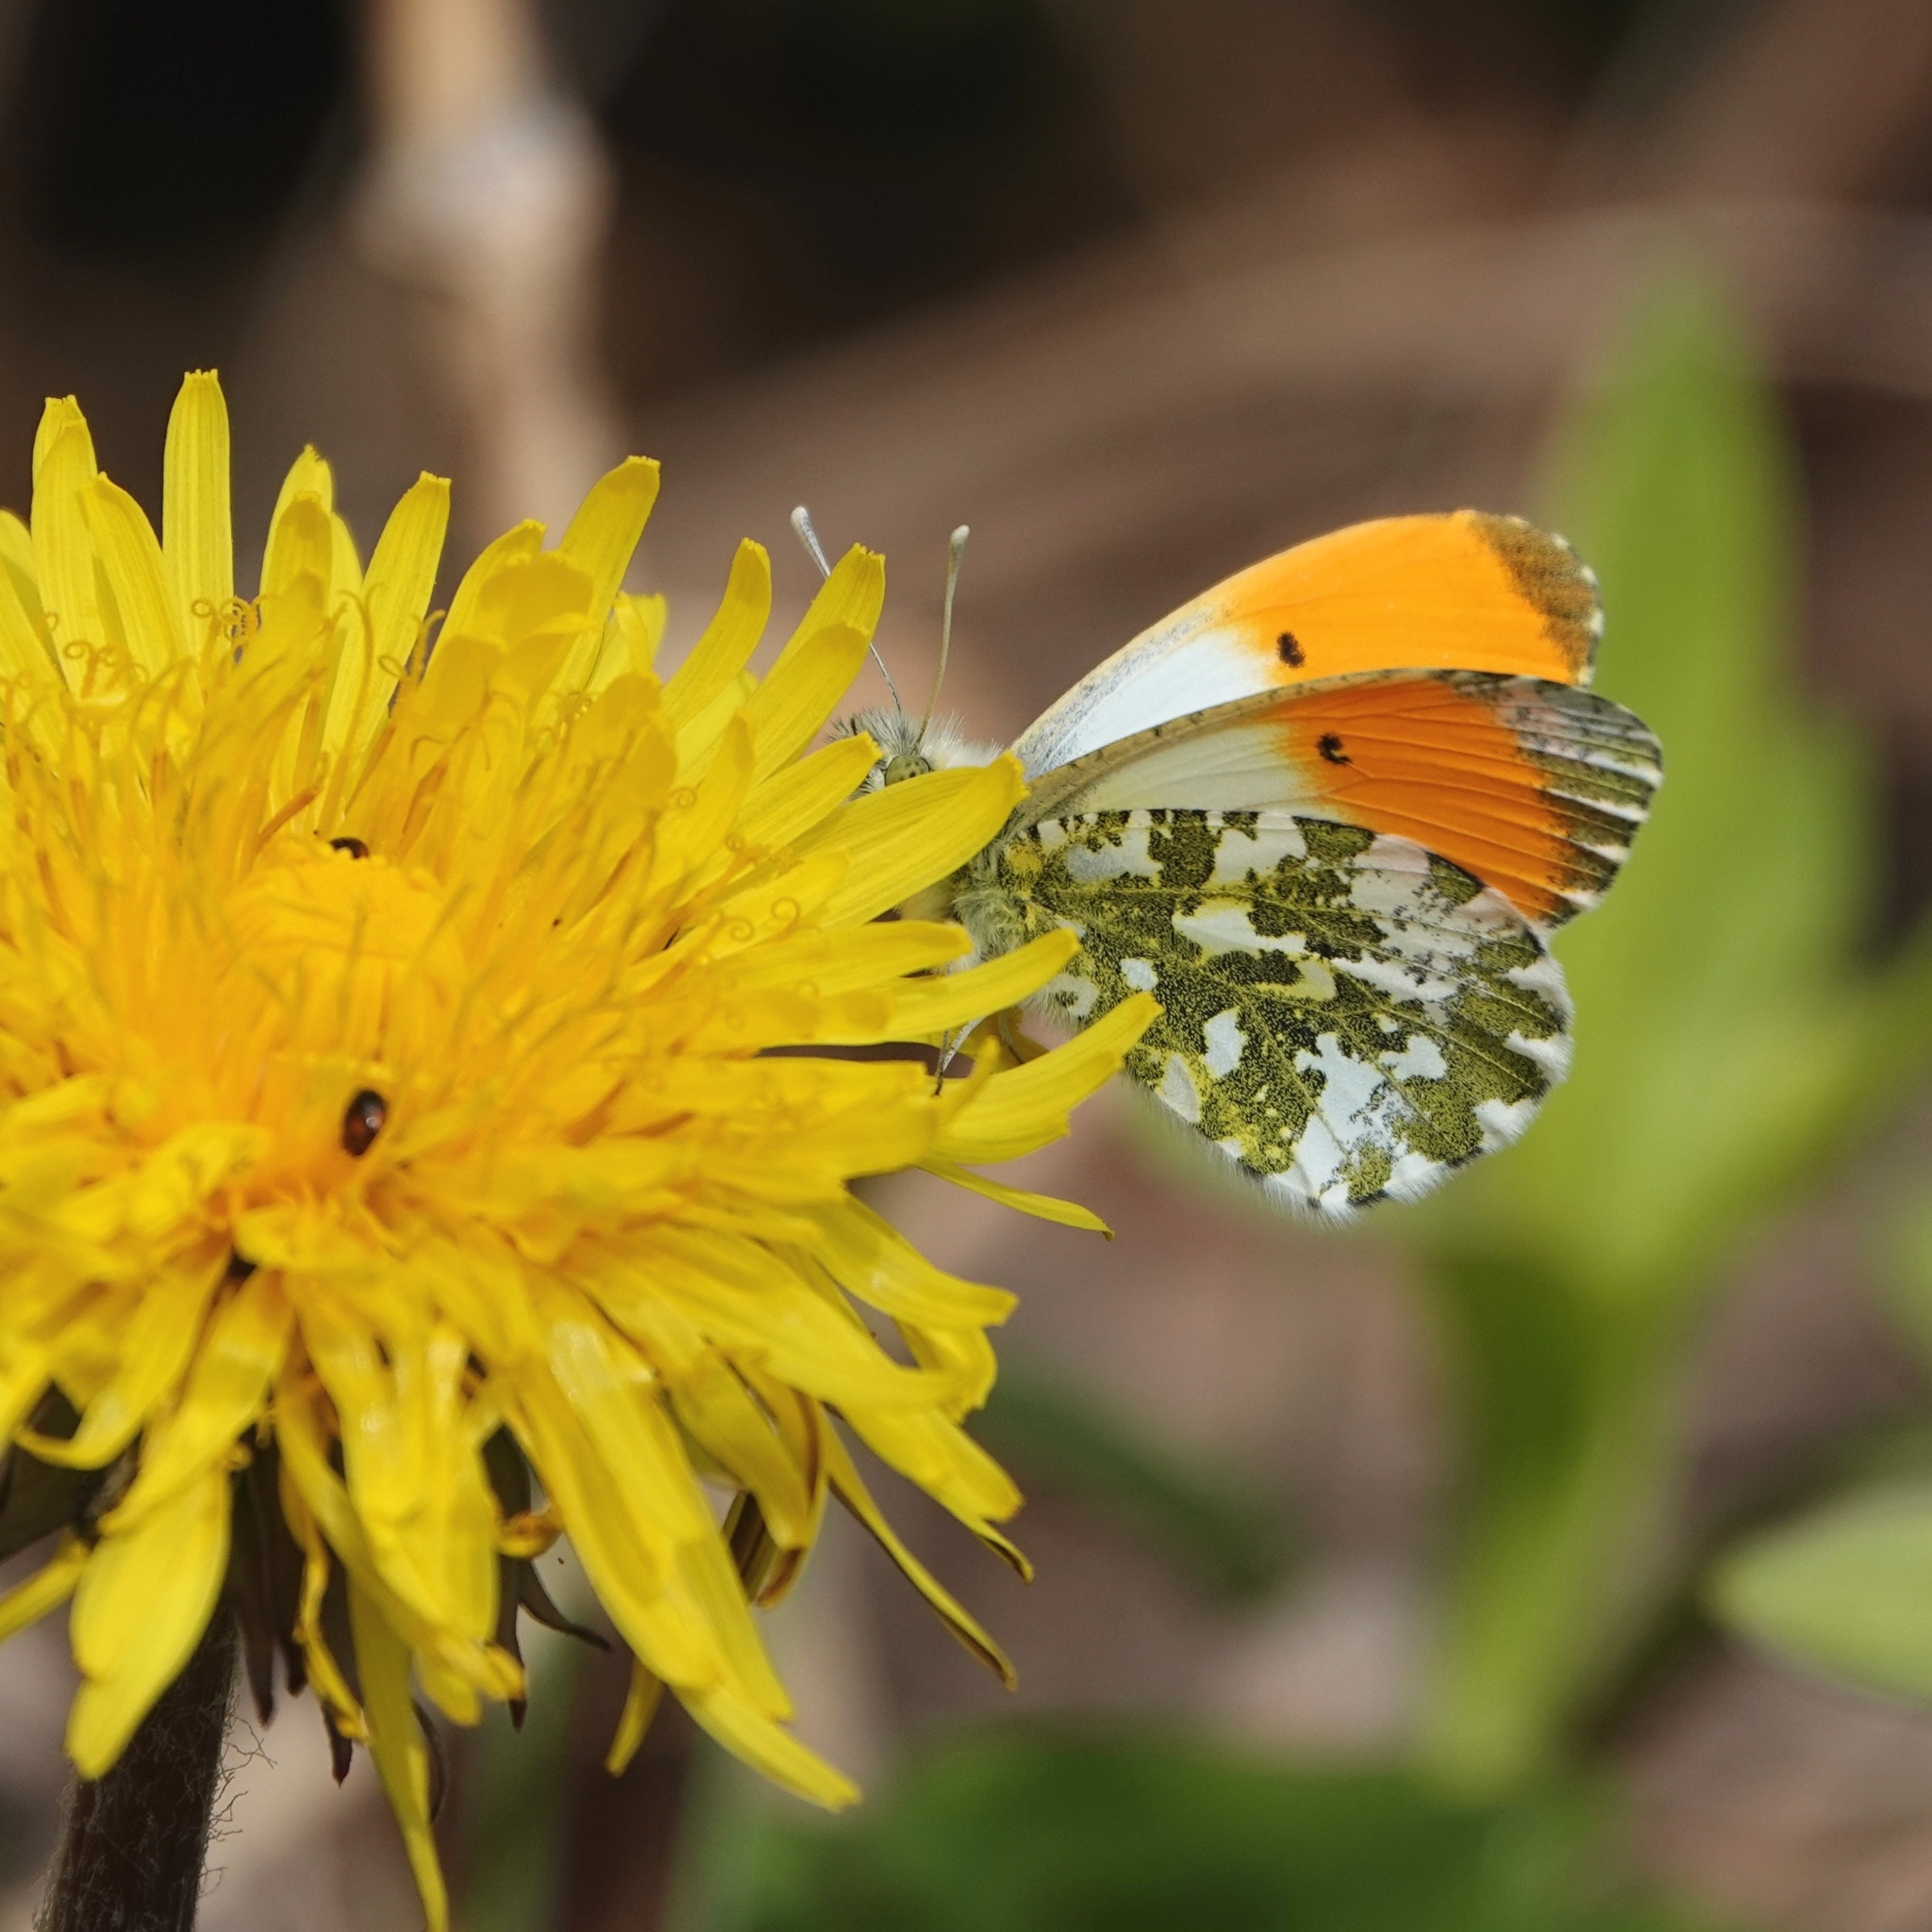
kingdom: Animalia
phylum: Arthropoda
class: Insecta
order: Lepidoptera
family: Pieridae
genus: Anthocharis
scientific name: Anthocharis cardamines
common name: Orange-tip
